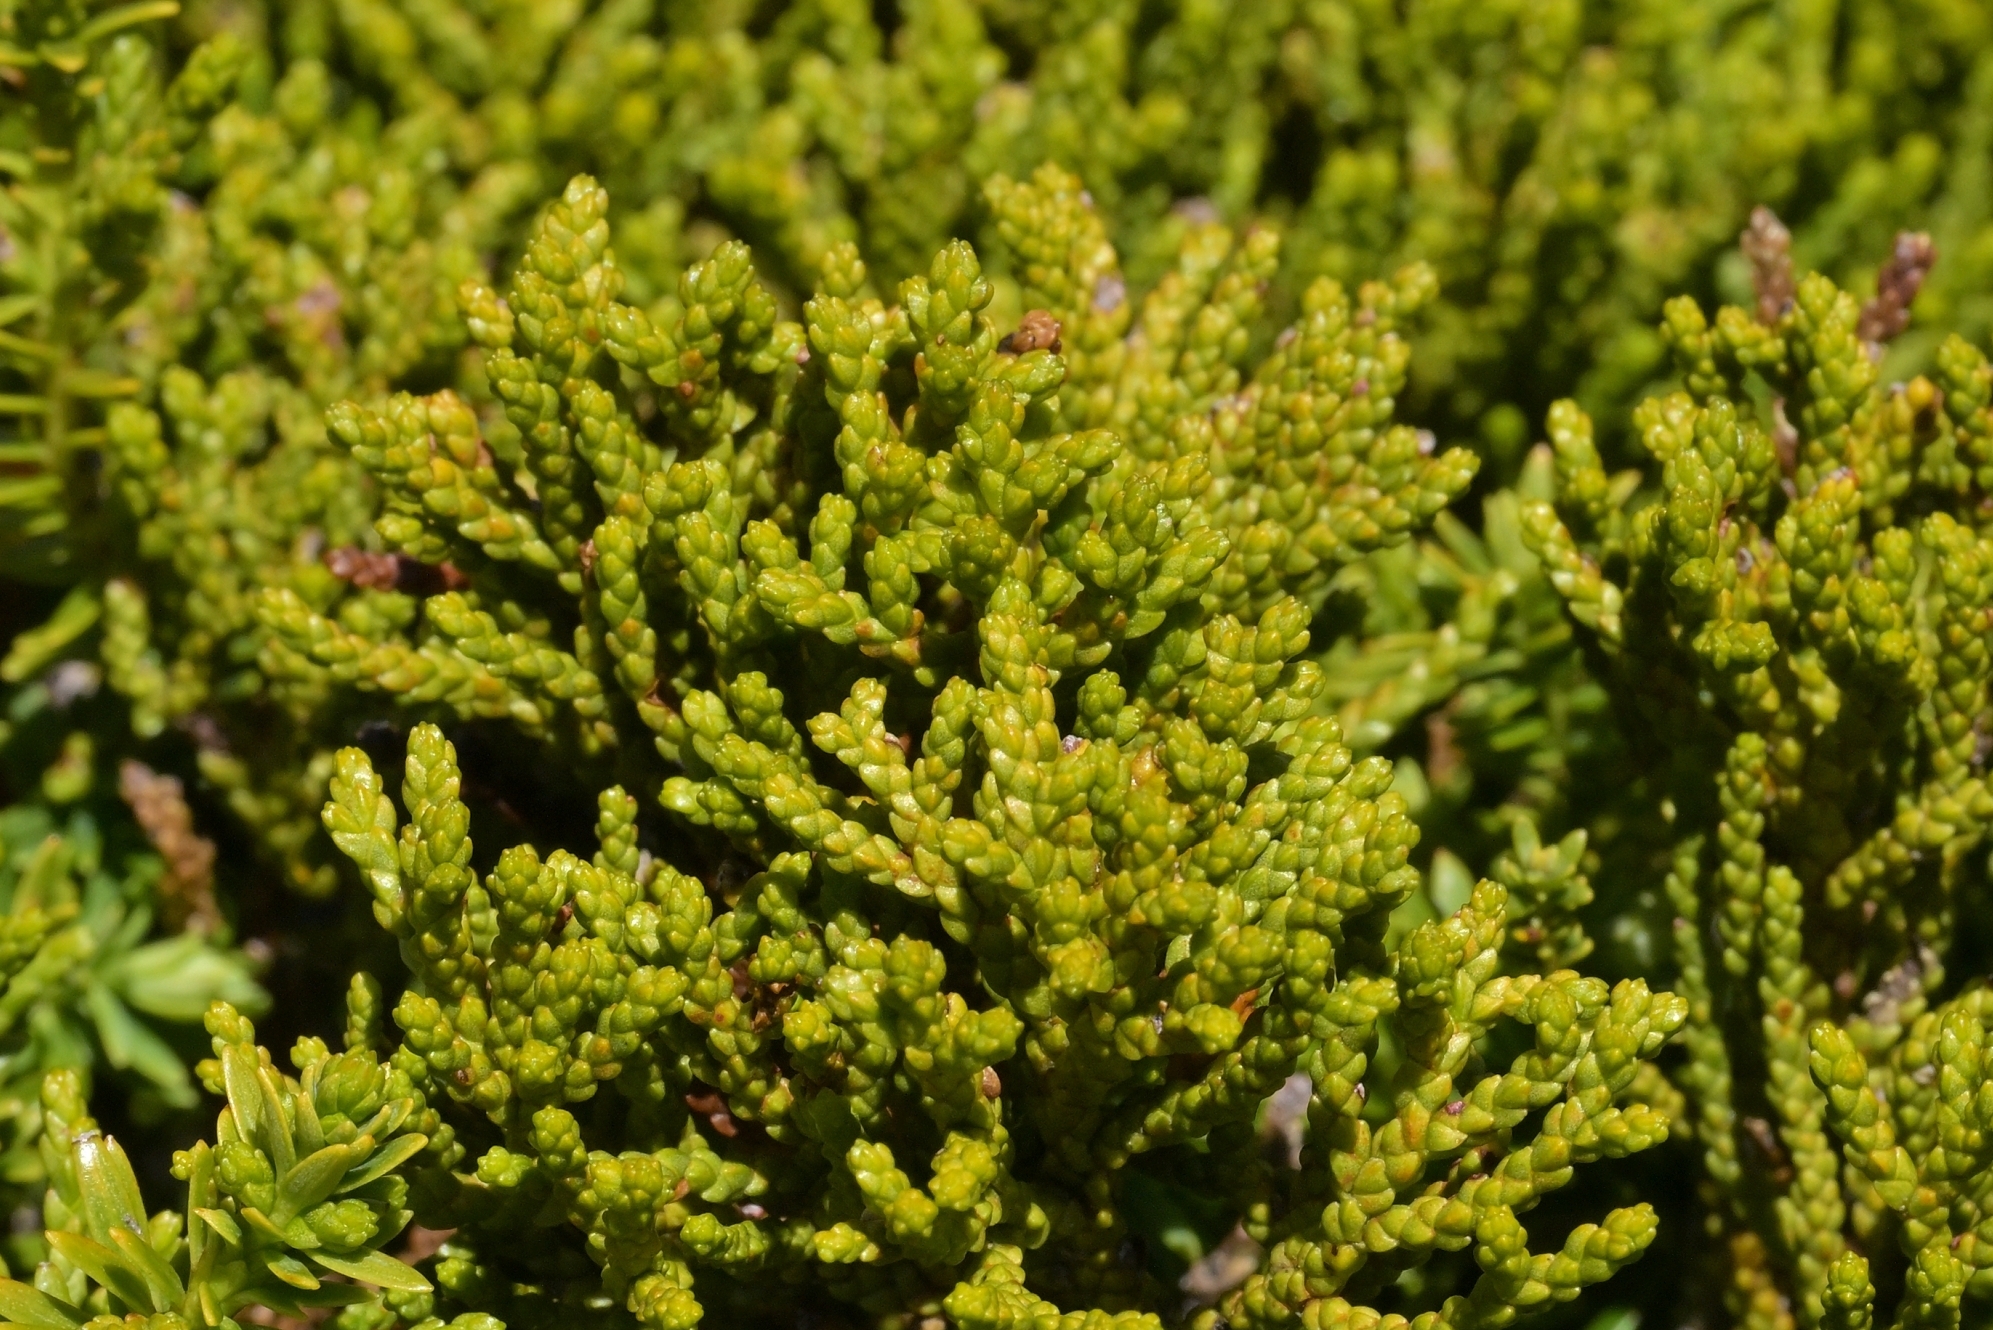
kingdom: Plantae
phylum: Tracheophyta
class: Pinopsida
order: Pinales
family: Podocarpaceae
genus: Halocarpus
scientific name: Halocarpus biformis
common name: Alpine tarwood
